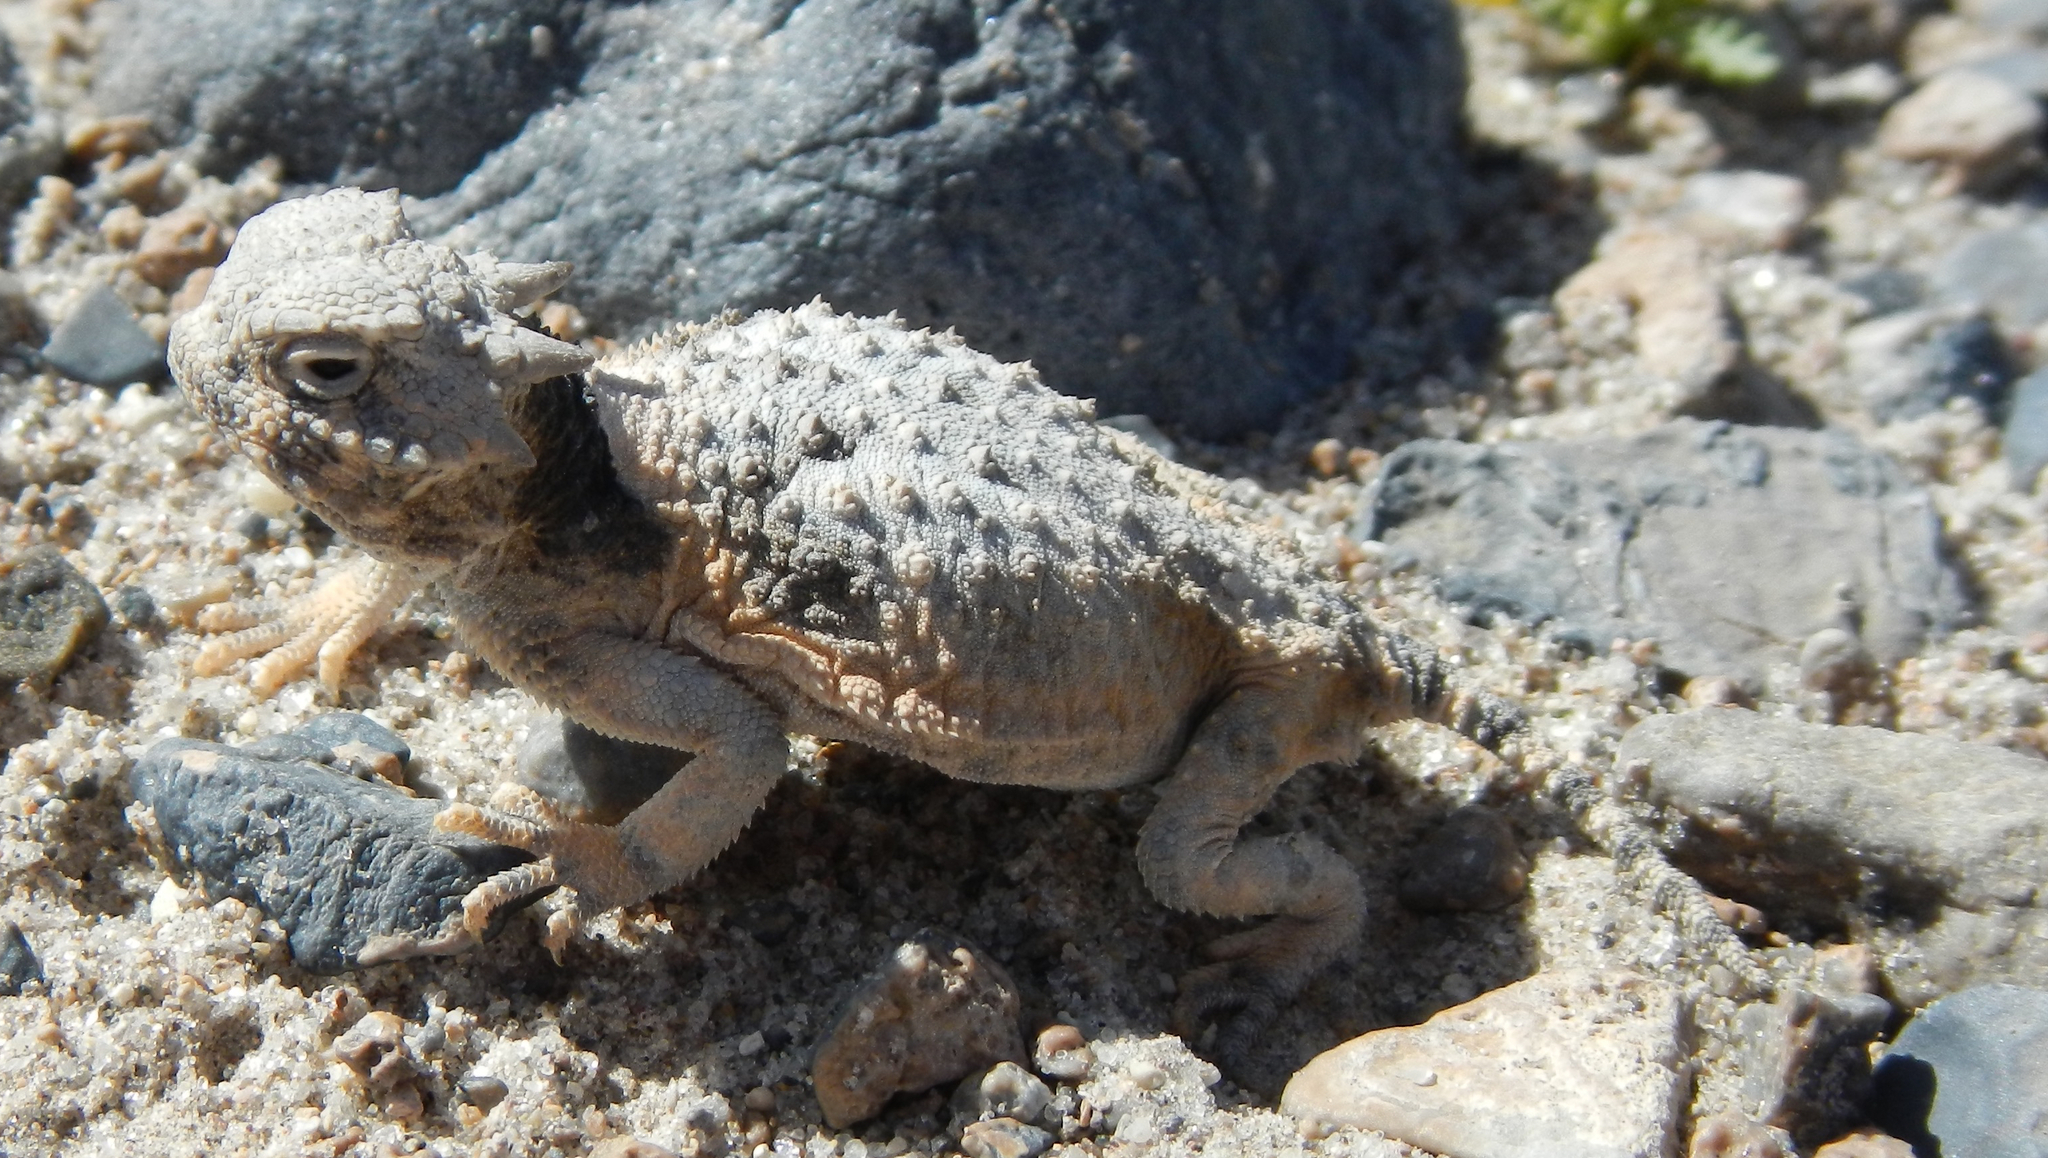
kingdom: Animalia
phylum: Chordata
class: Squamata
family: Phrynosomatidae
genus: Phrynosoma
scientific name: Phrynosoma platyrhinos
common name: Desert horned lizard
